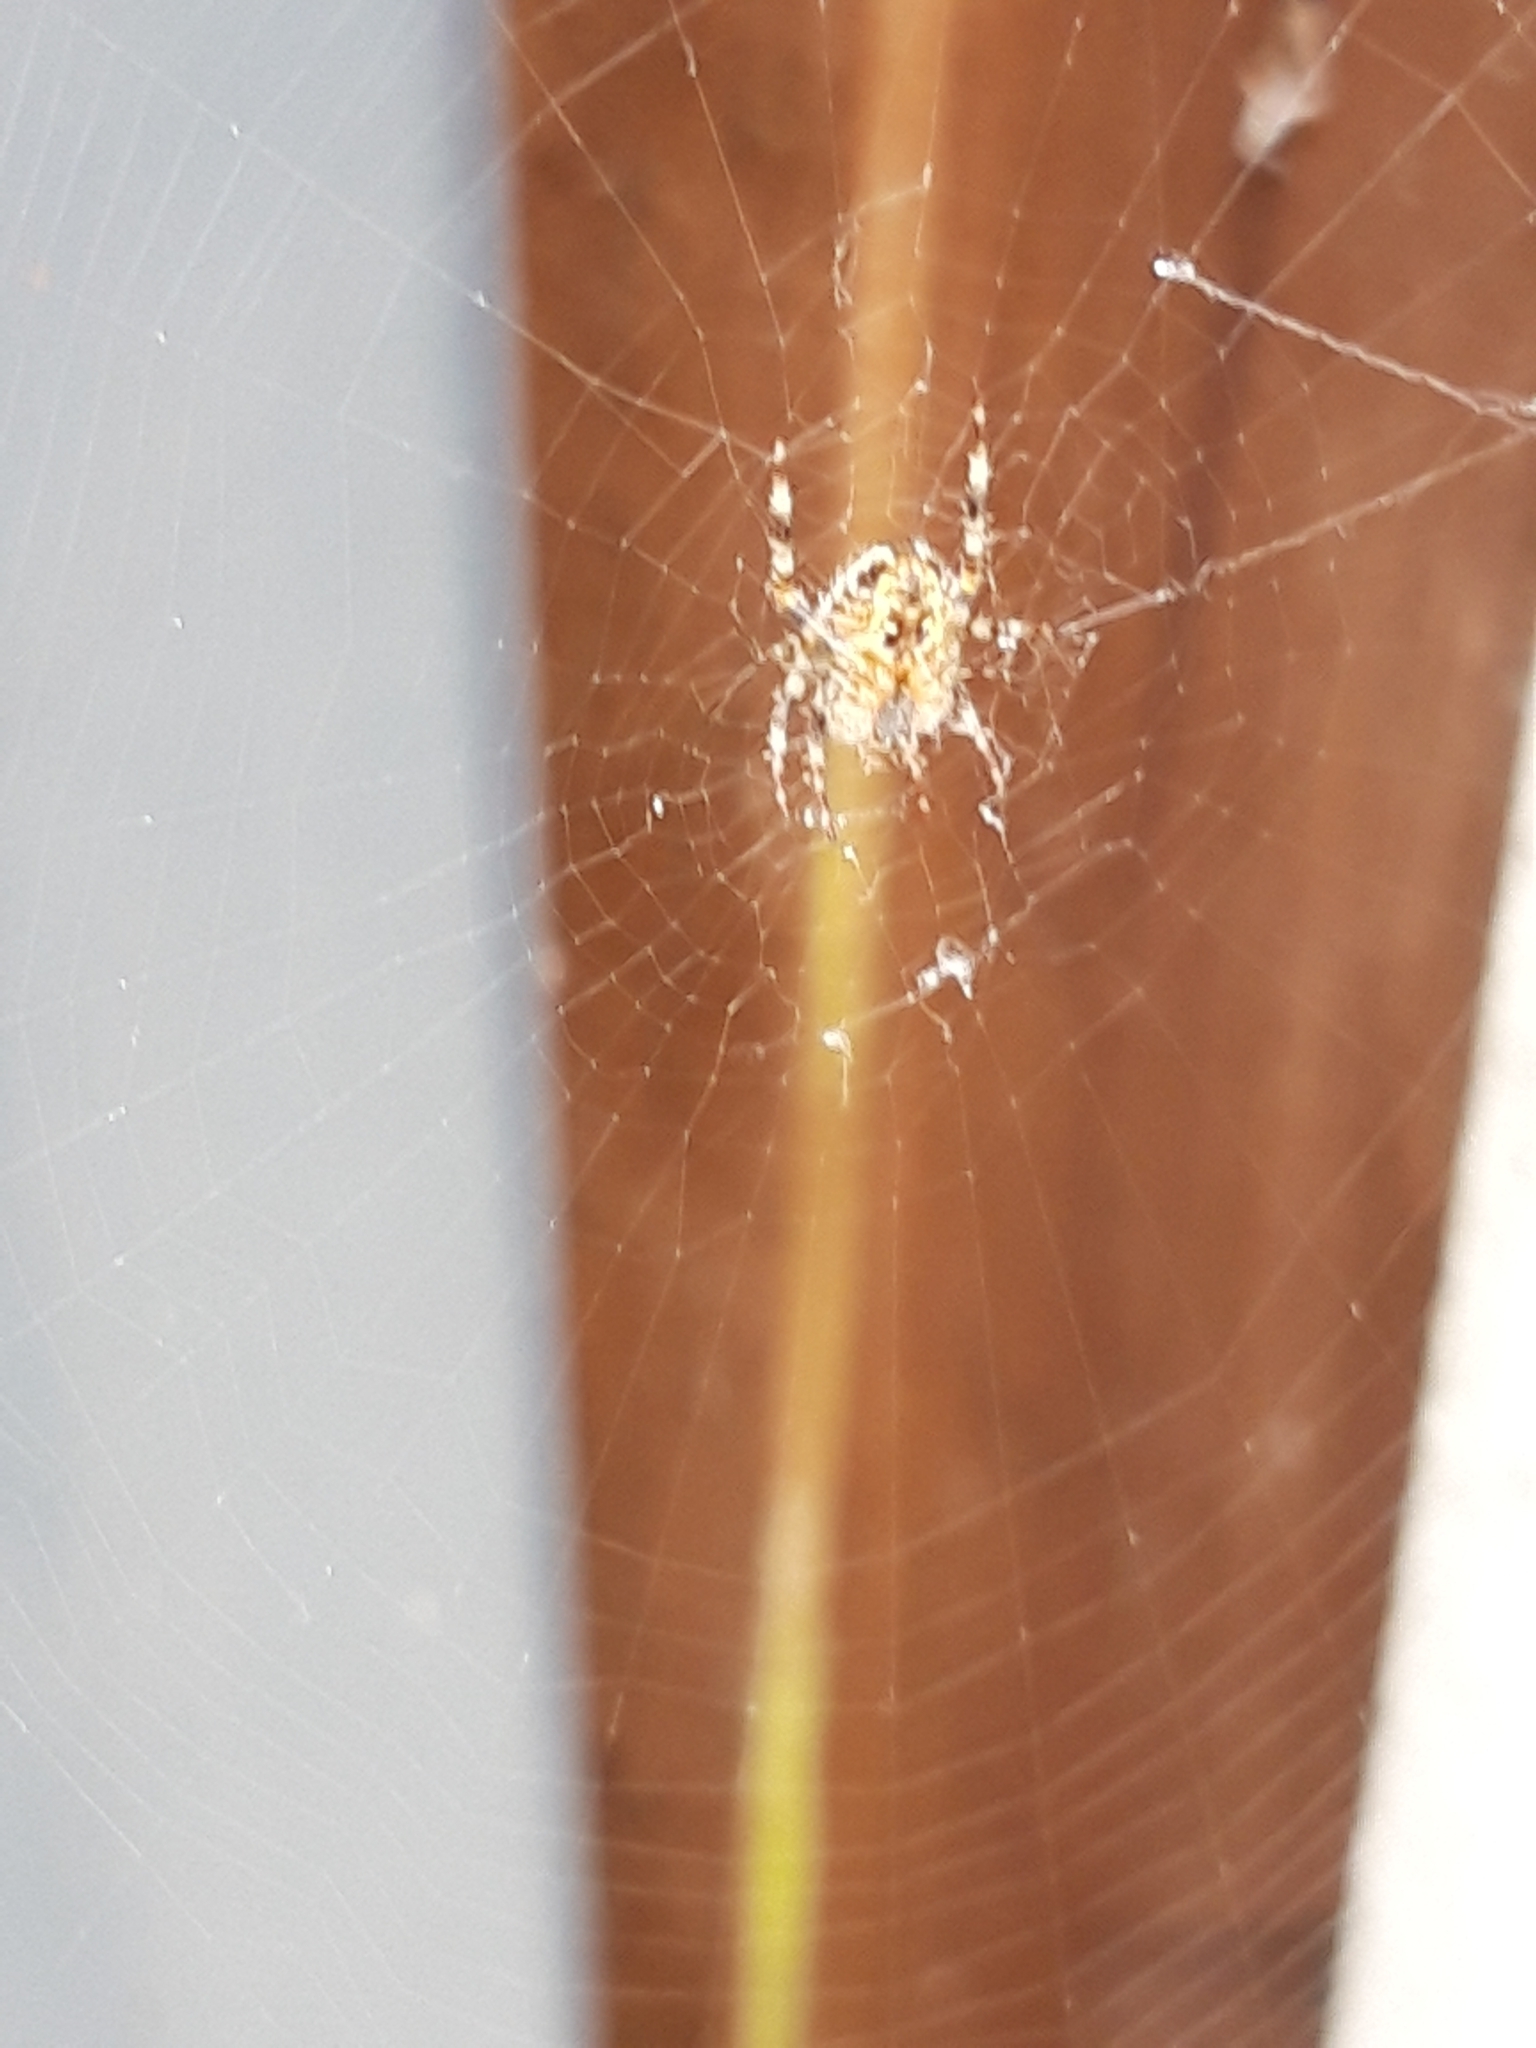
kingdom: Animalia
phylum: Arthropoda
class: Arachnida
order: Araneae
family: Araneidae
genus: Araneus
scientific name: Araneus diadematus
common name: Cross orbweaver
